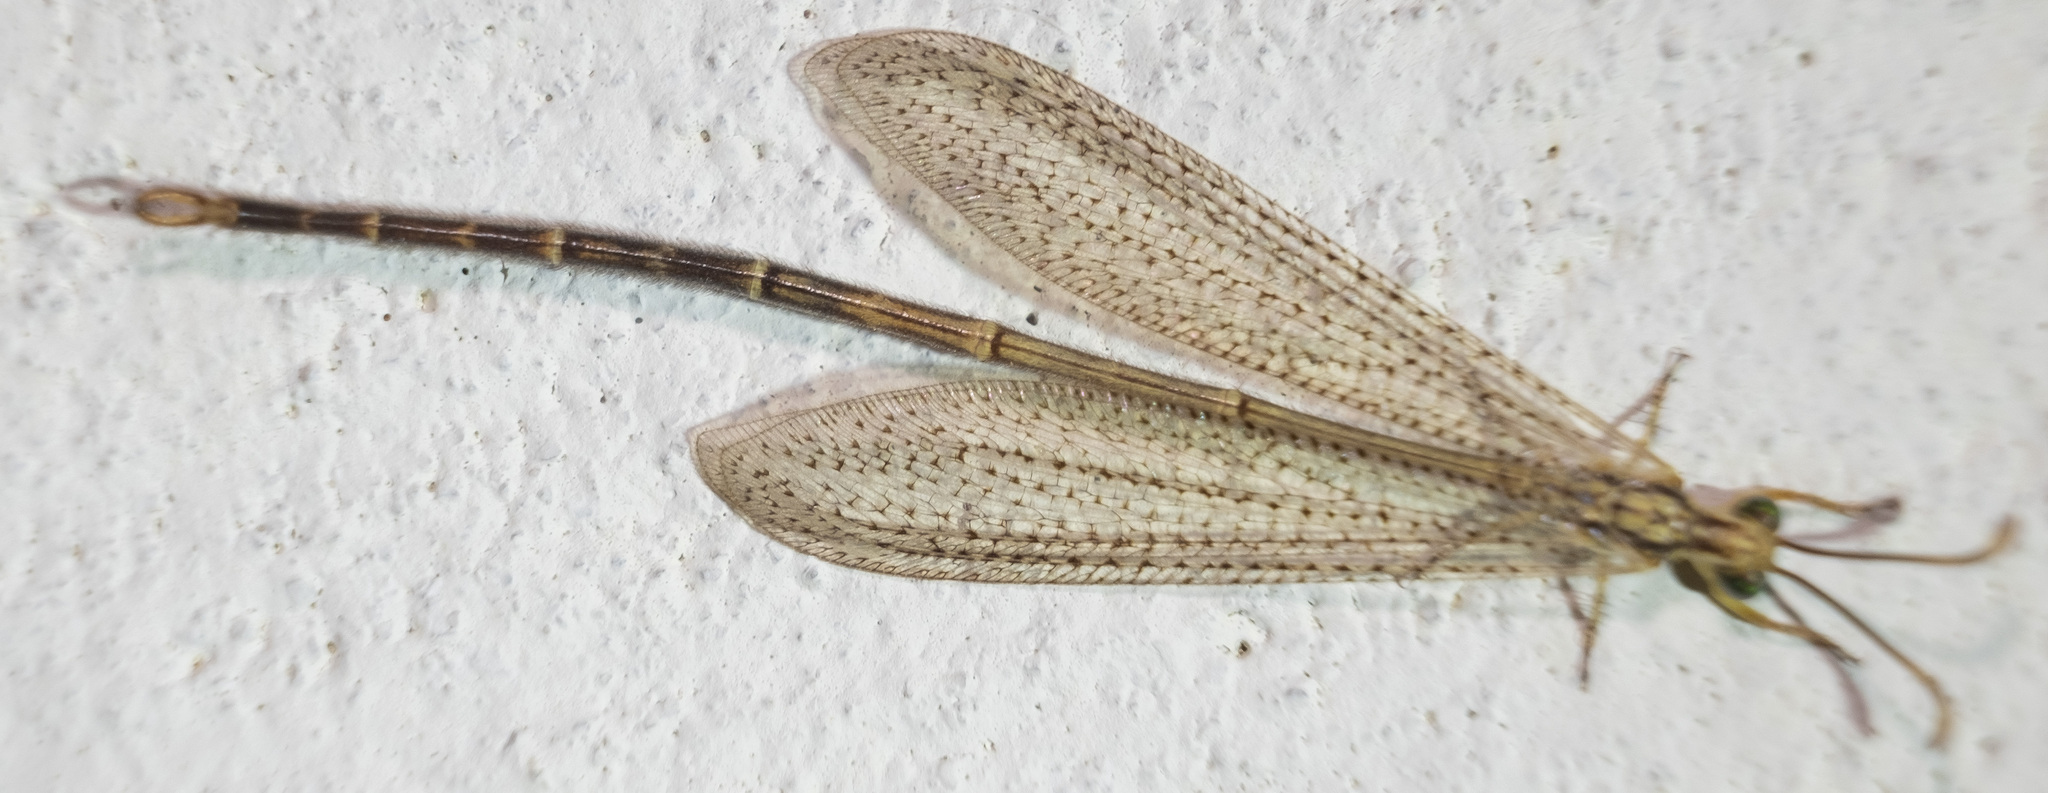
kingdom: Animalia
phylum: Arthropoda
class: Insecta
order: Neuroptera
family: Myrmeleontidae
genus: Brachynemurus
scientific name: Brachynemurus abdominalis
